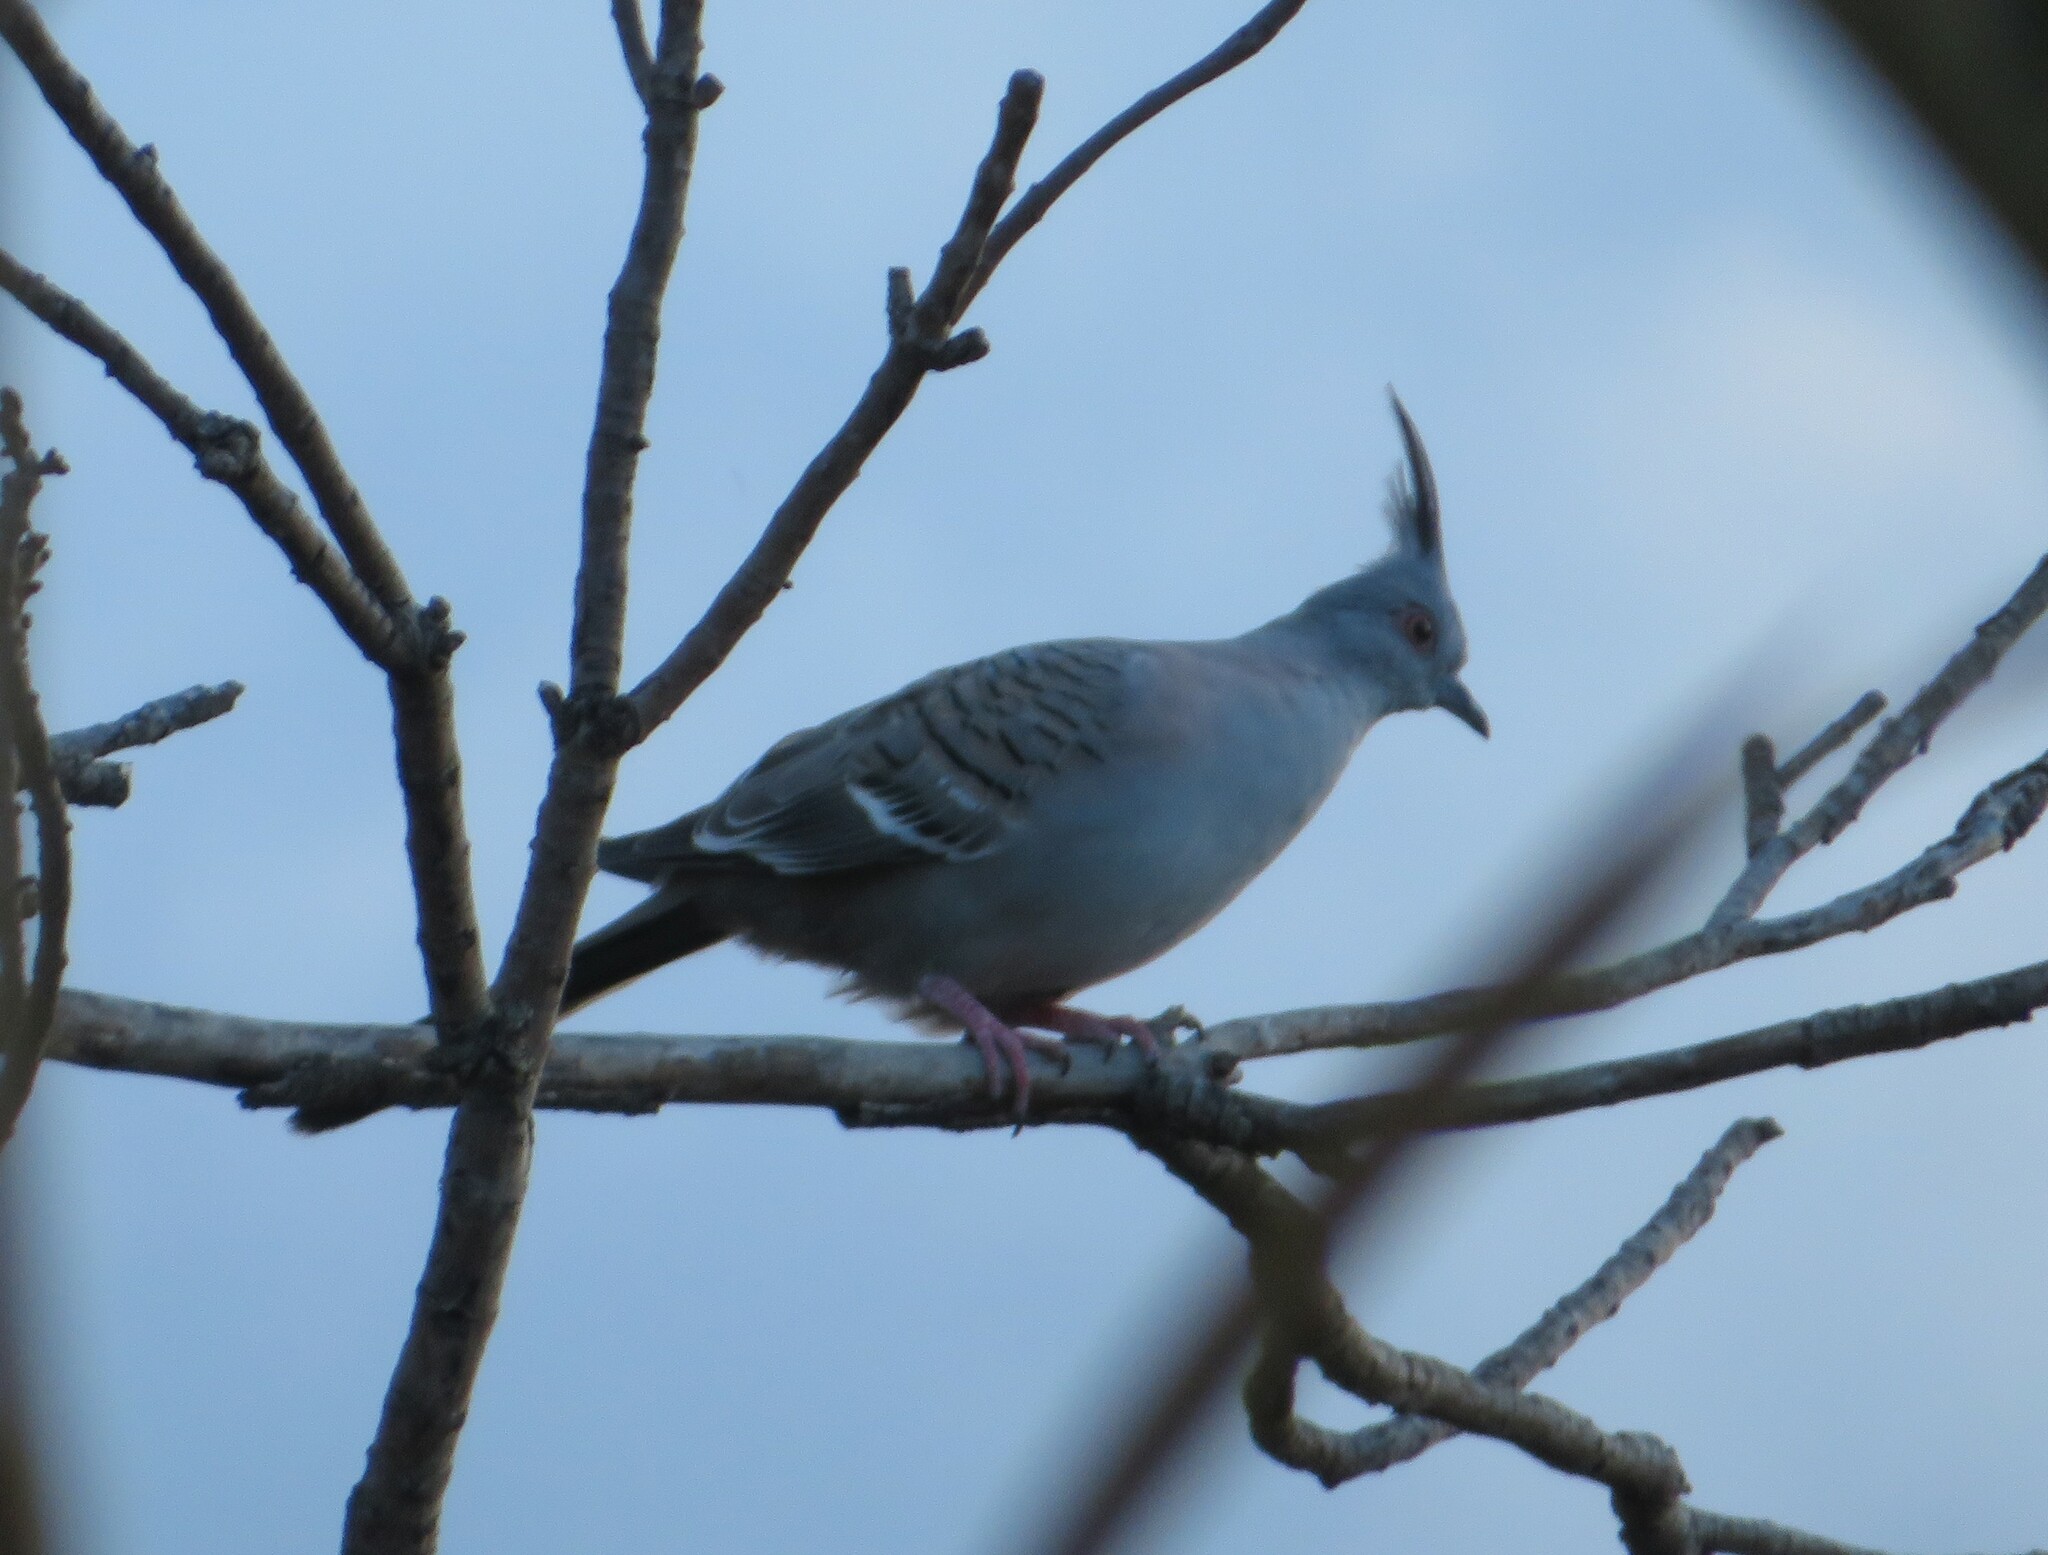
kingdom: Animalia
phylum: Chordata
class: Aves
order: Columbiformes
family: Columbidae
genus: Ocyphaps
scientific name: Ocyphaps lophotes
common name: Crested pigeon
